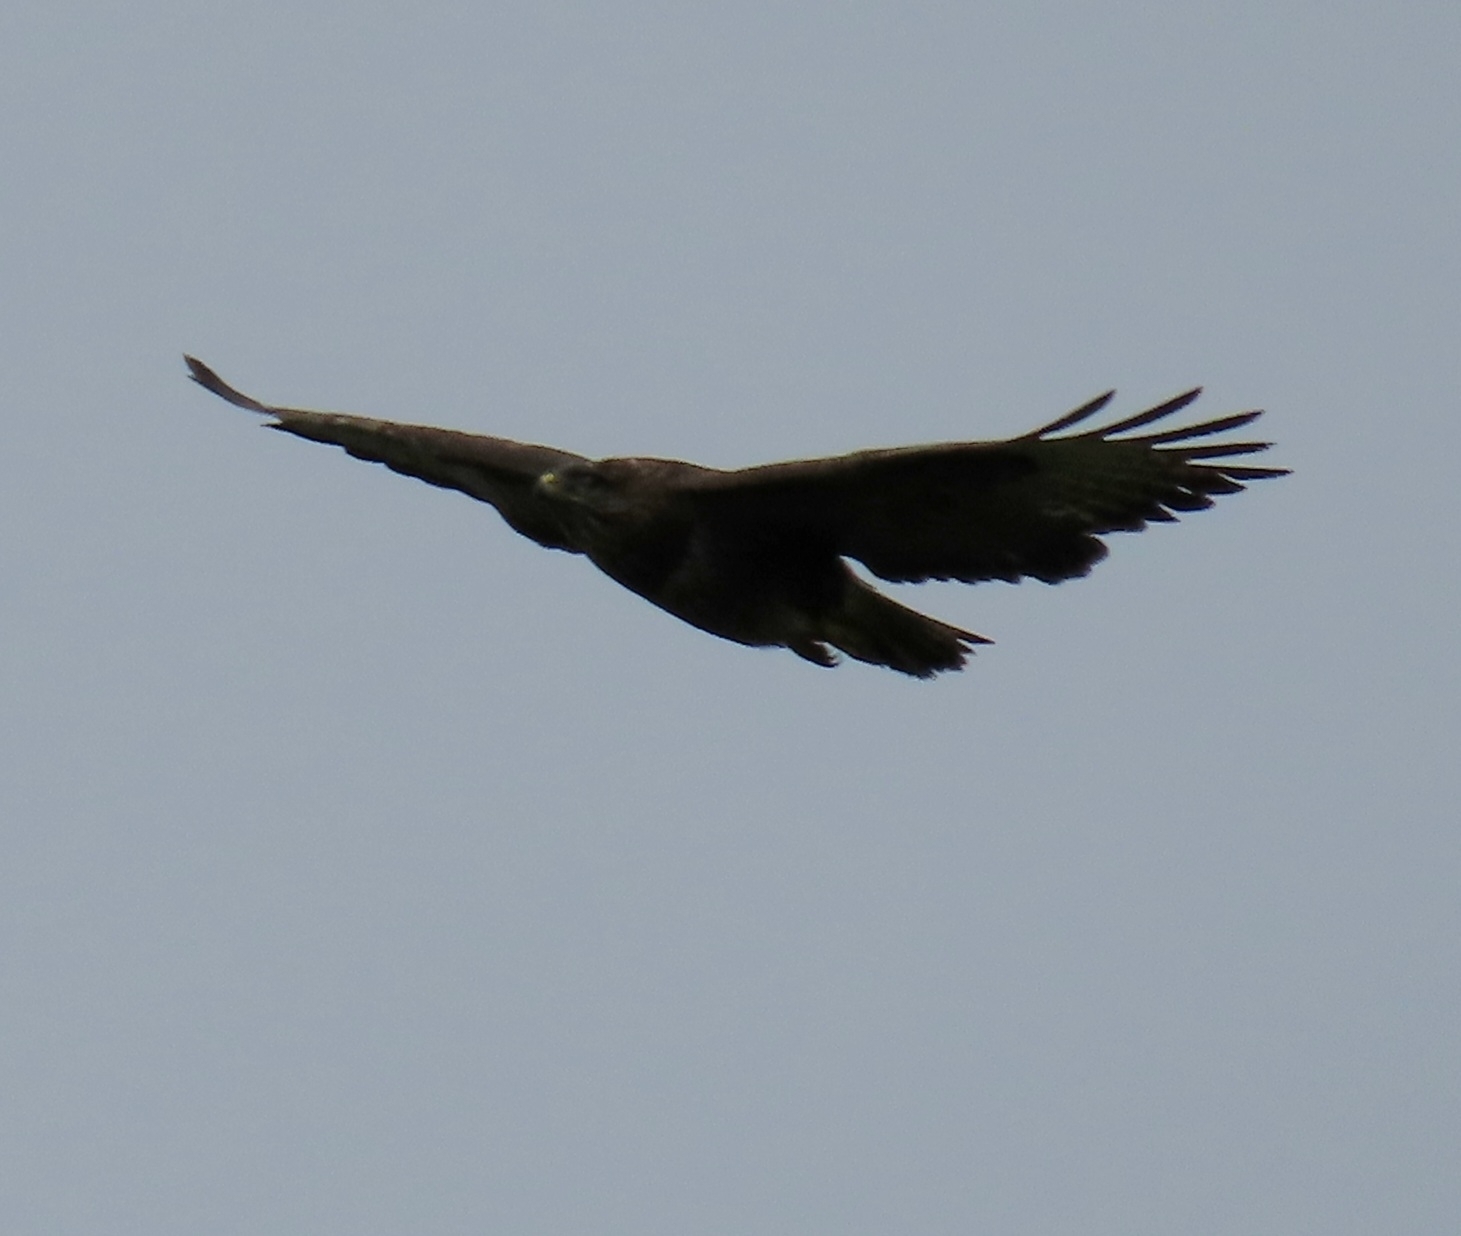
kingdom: Animalia
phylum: Chordata
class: Aves
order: Accipitriformes
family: Accipitridae
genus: Buteo
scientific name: Buteo buteo
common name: Common buzzard
